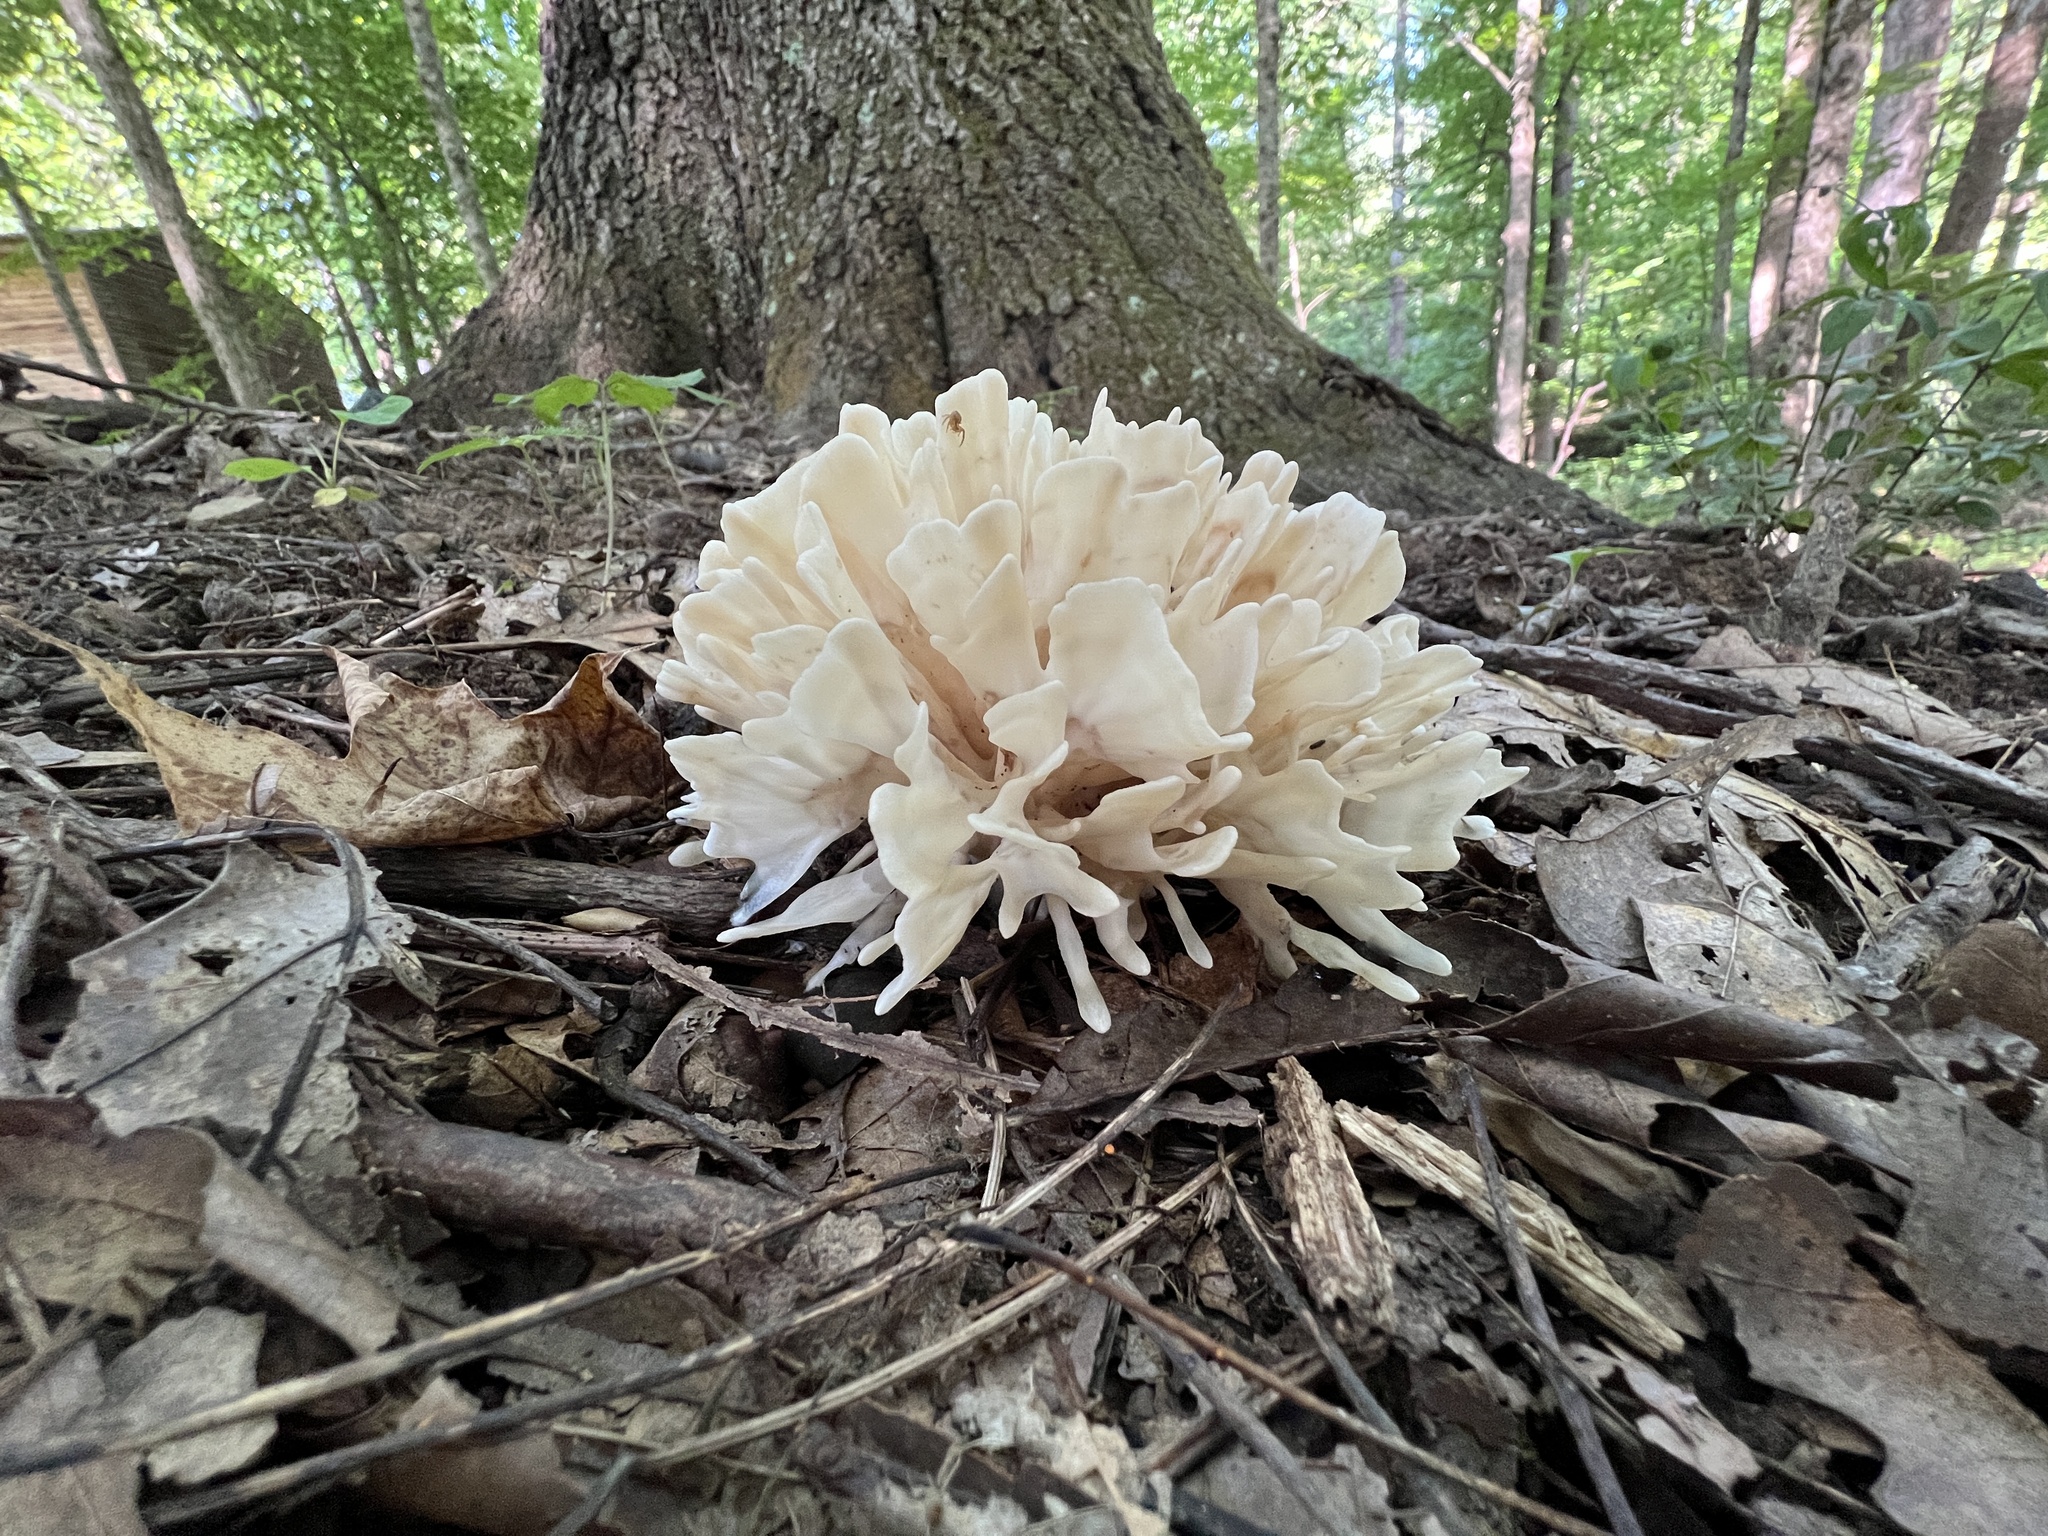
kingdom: Fungi
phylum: Basidiomycota
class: Agaricomycetes
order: Polyporales
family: Sparassidaceae
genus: Sparassis
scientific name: Sparassis spathulata
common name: Eastern cauliflower mushroom
